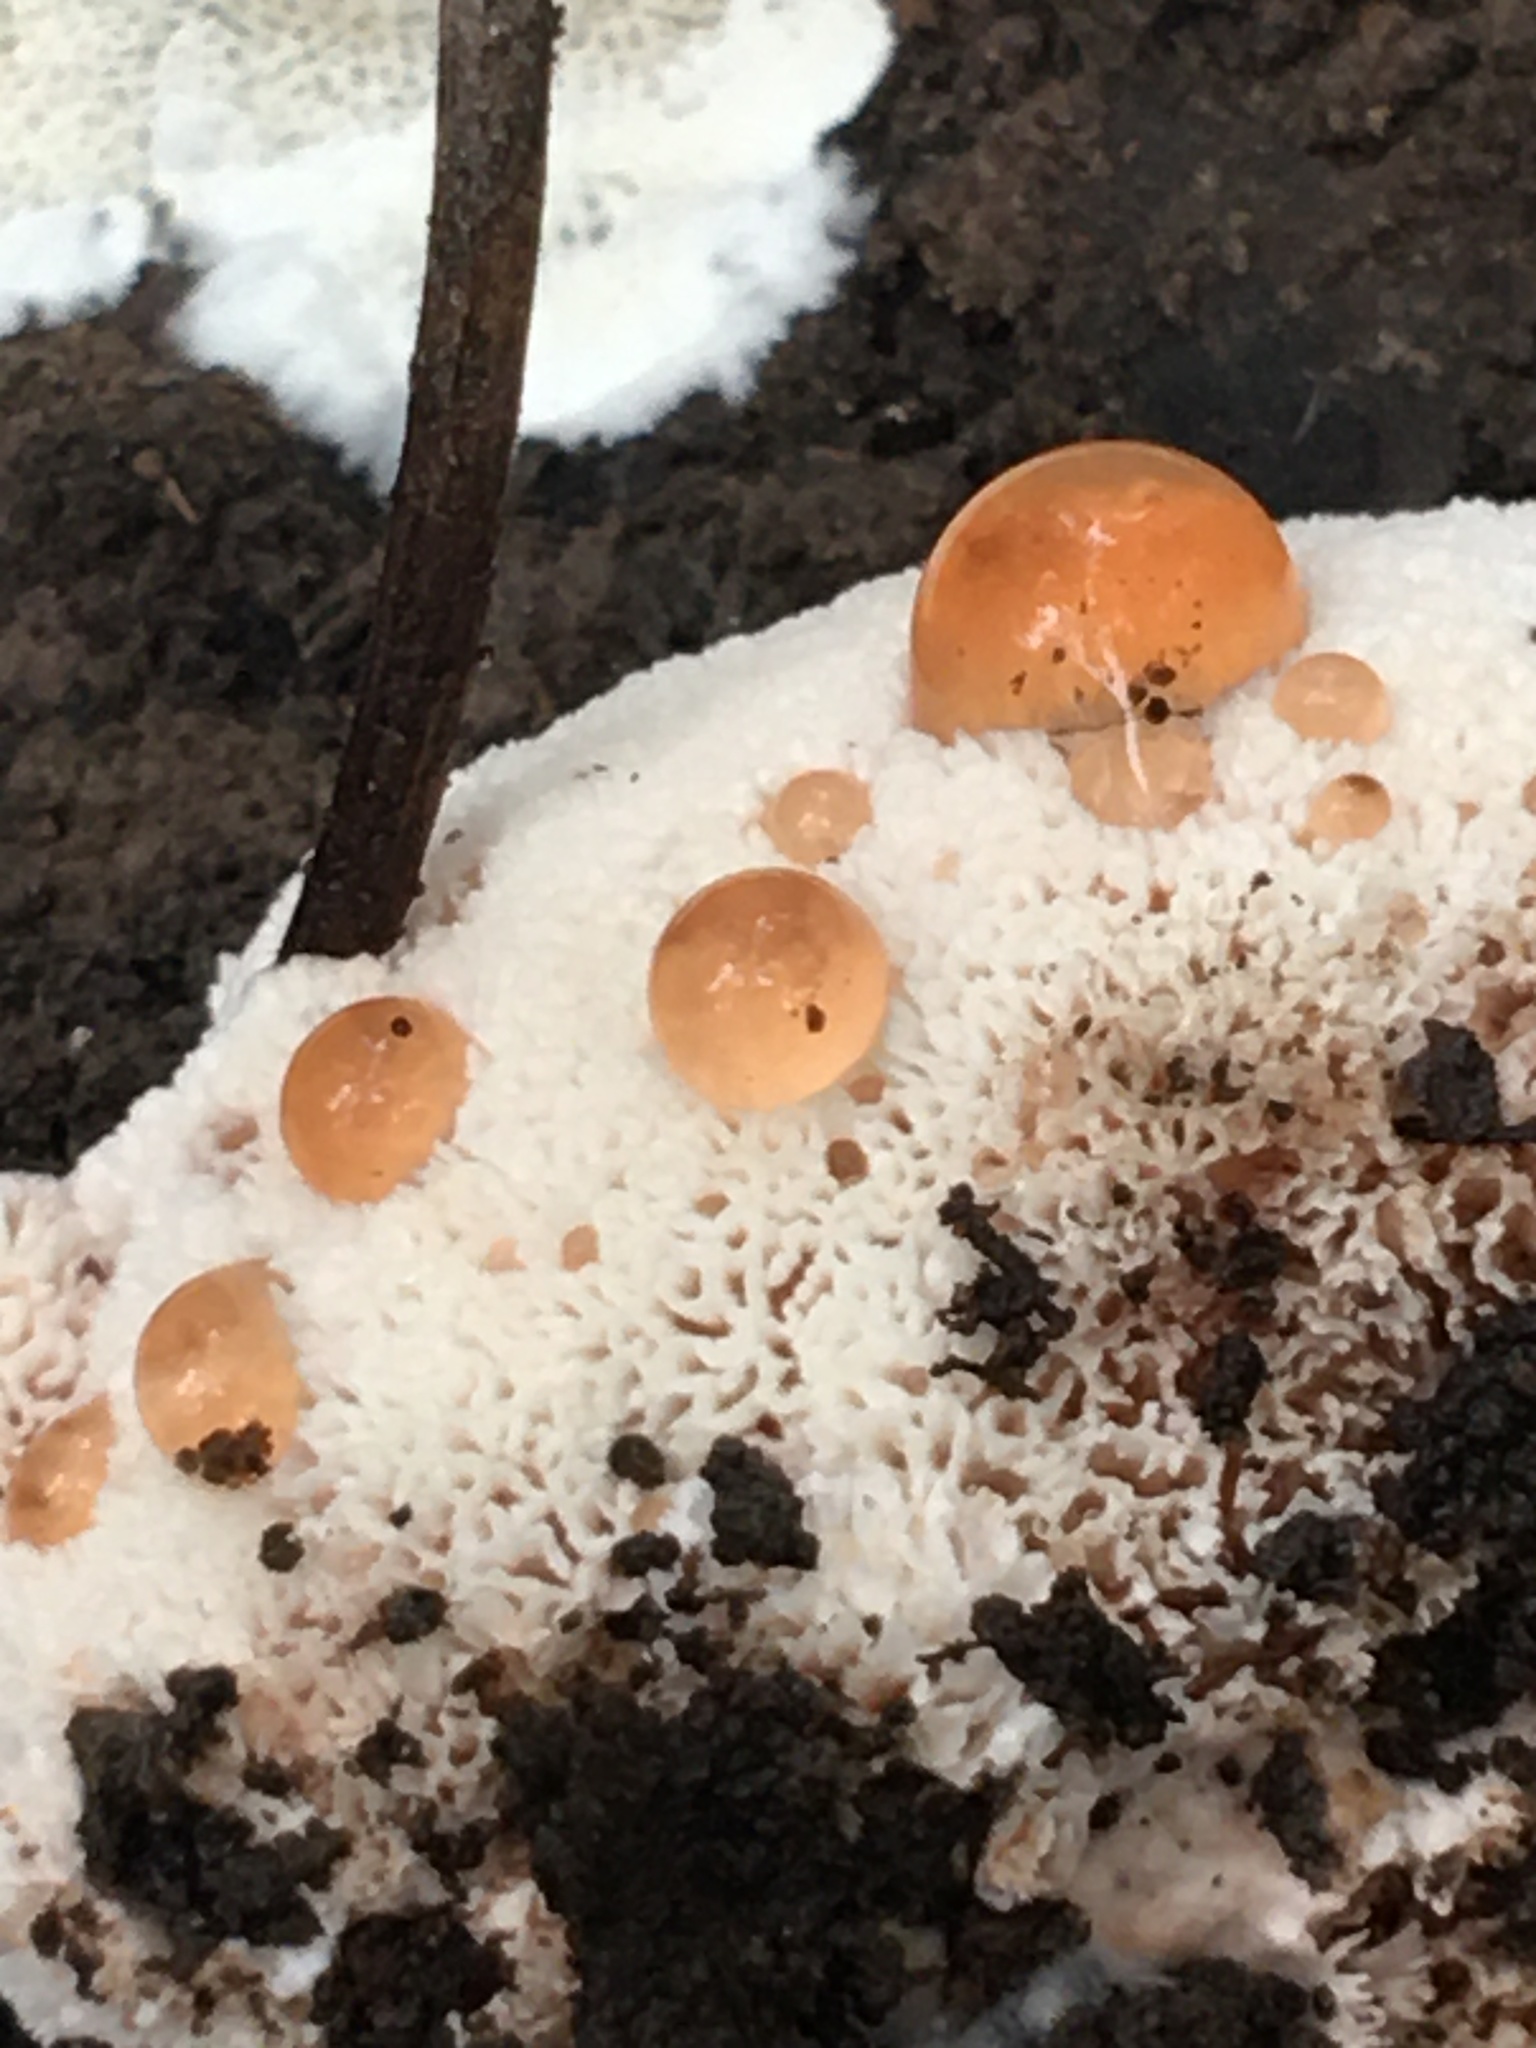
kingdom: Fungi
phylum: Basidiomycota
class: Agaricomycetes
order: Polyporales
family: Podoscyphaceae
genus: Abortiporus
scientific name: Abortiporus biennis
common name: Blushing rosette
